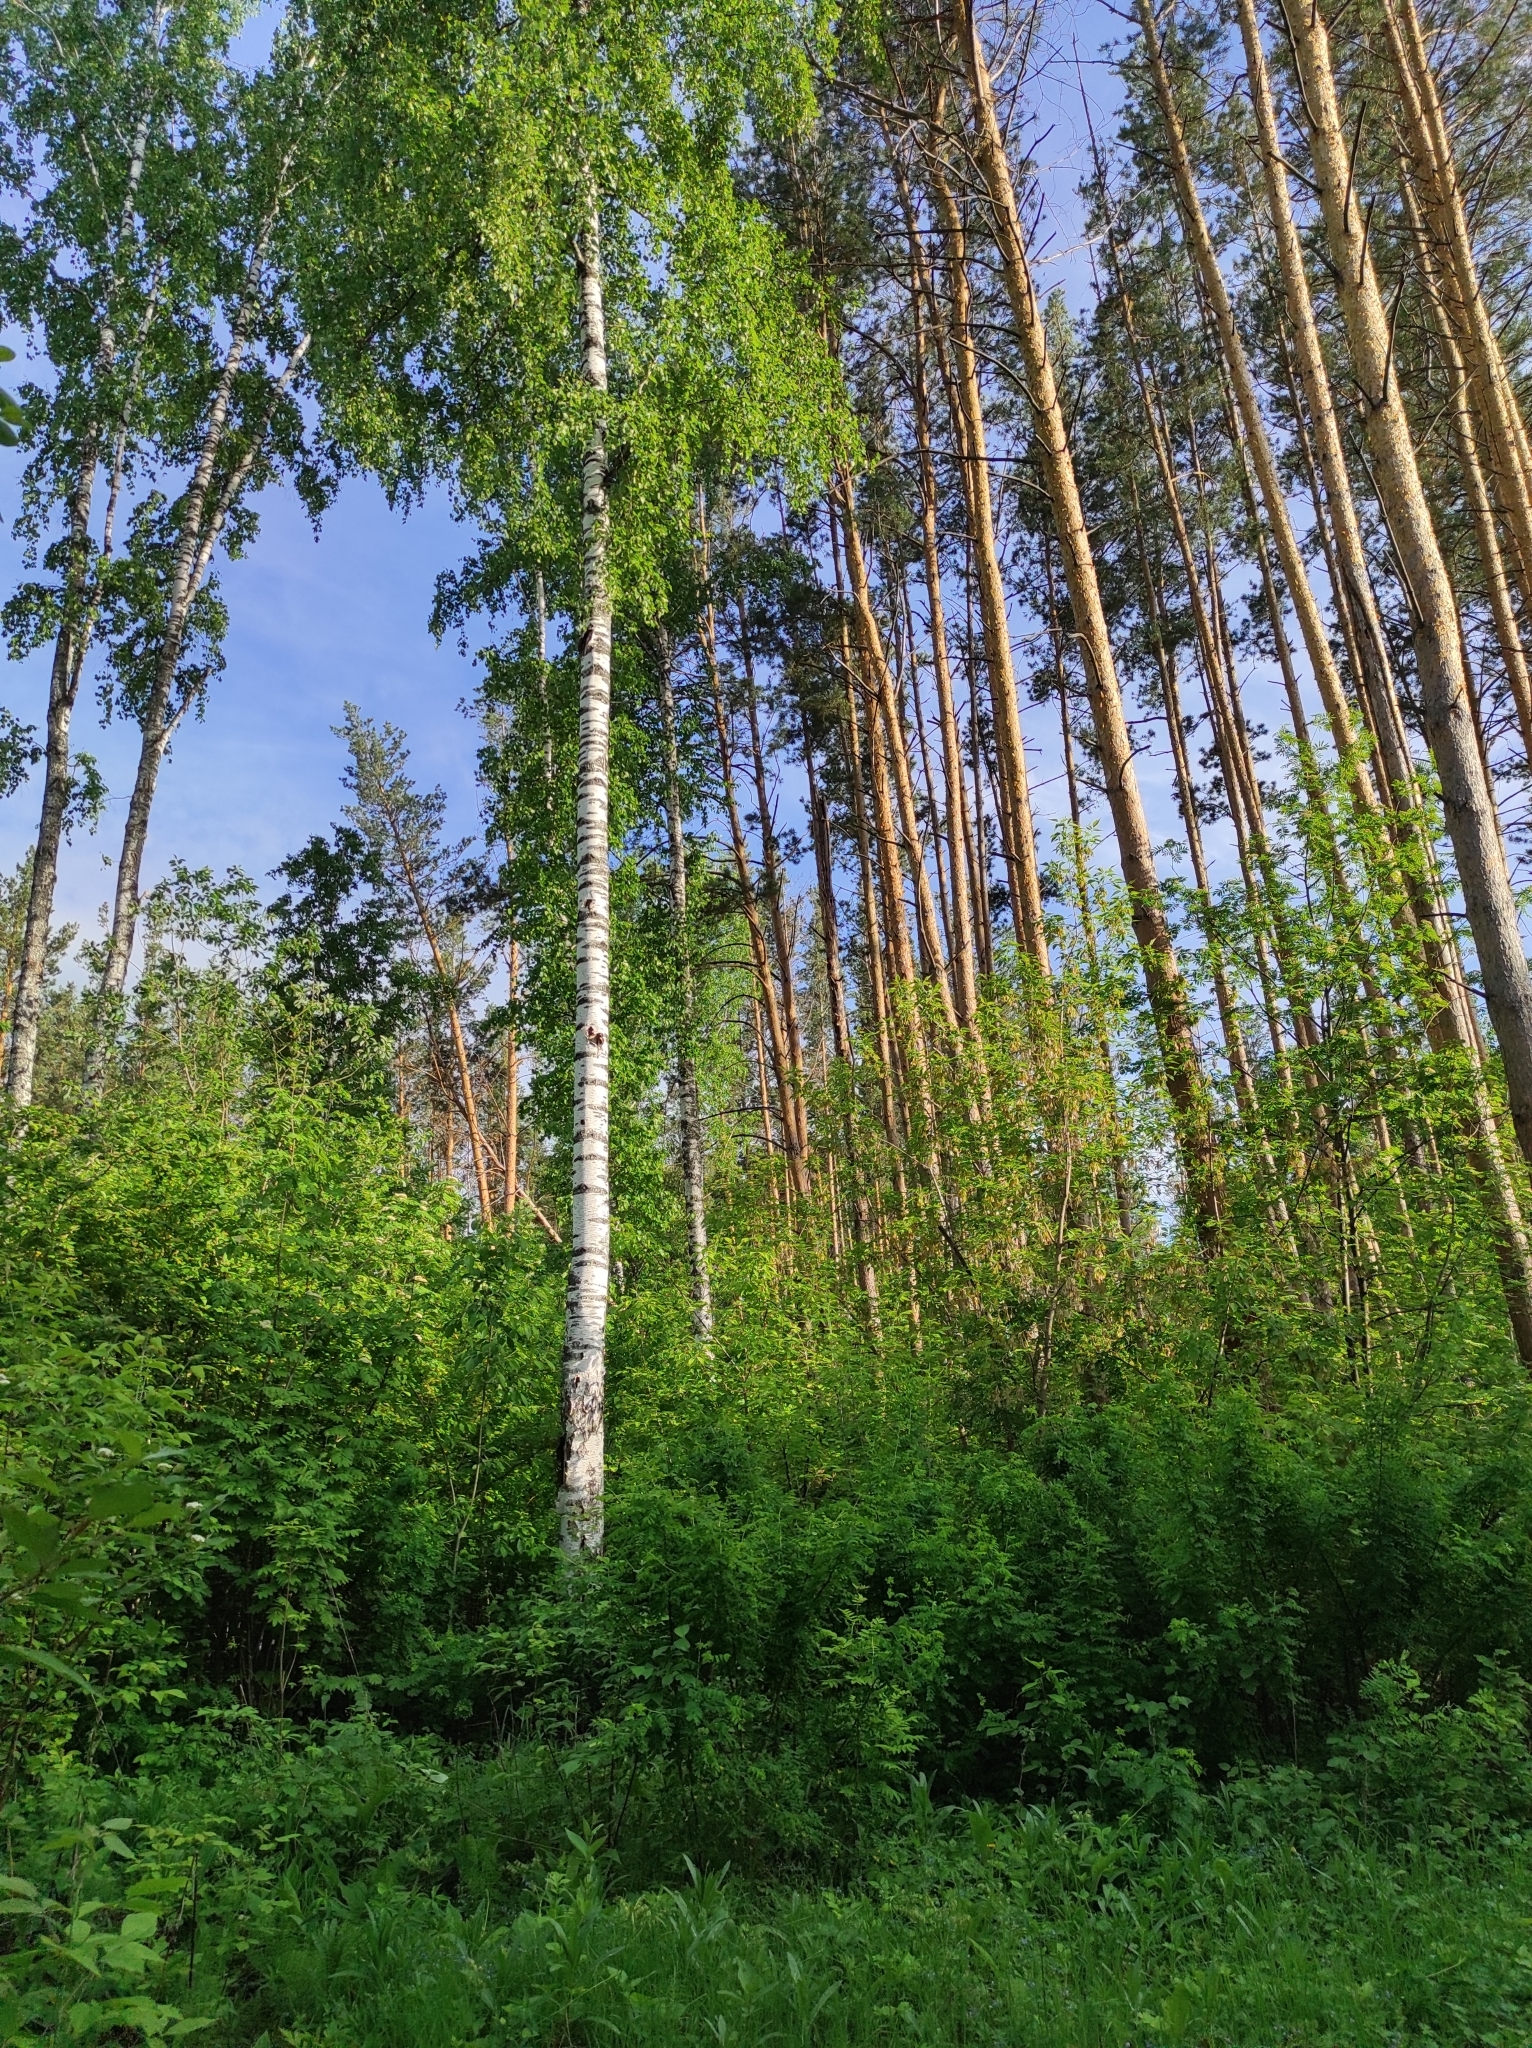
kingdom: Plantae
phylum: Tracheophyta
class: Pinopsida
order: Pinales
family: Pinaceae
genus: Pinus
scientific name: Pinus sylvestris
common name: Scots pine
